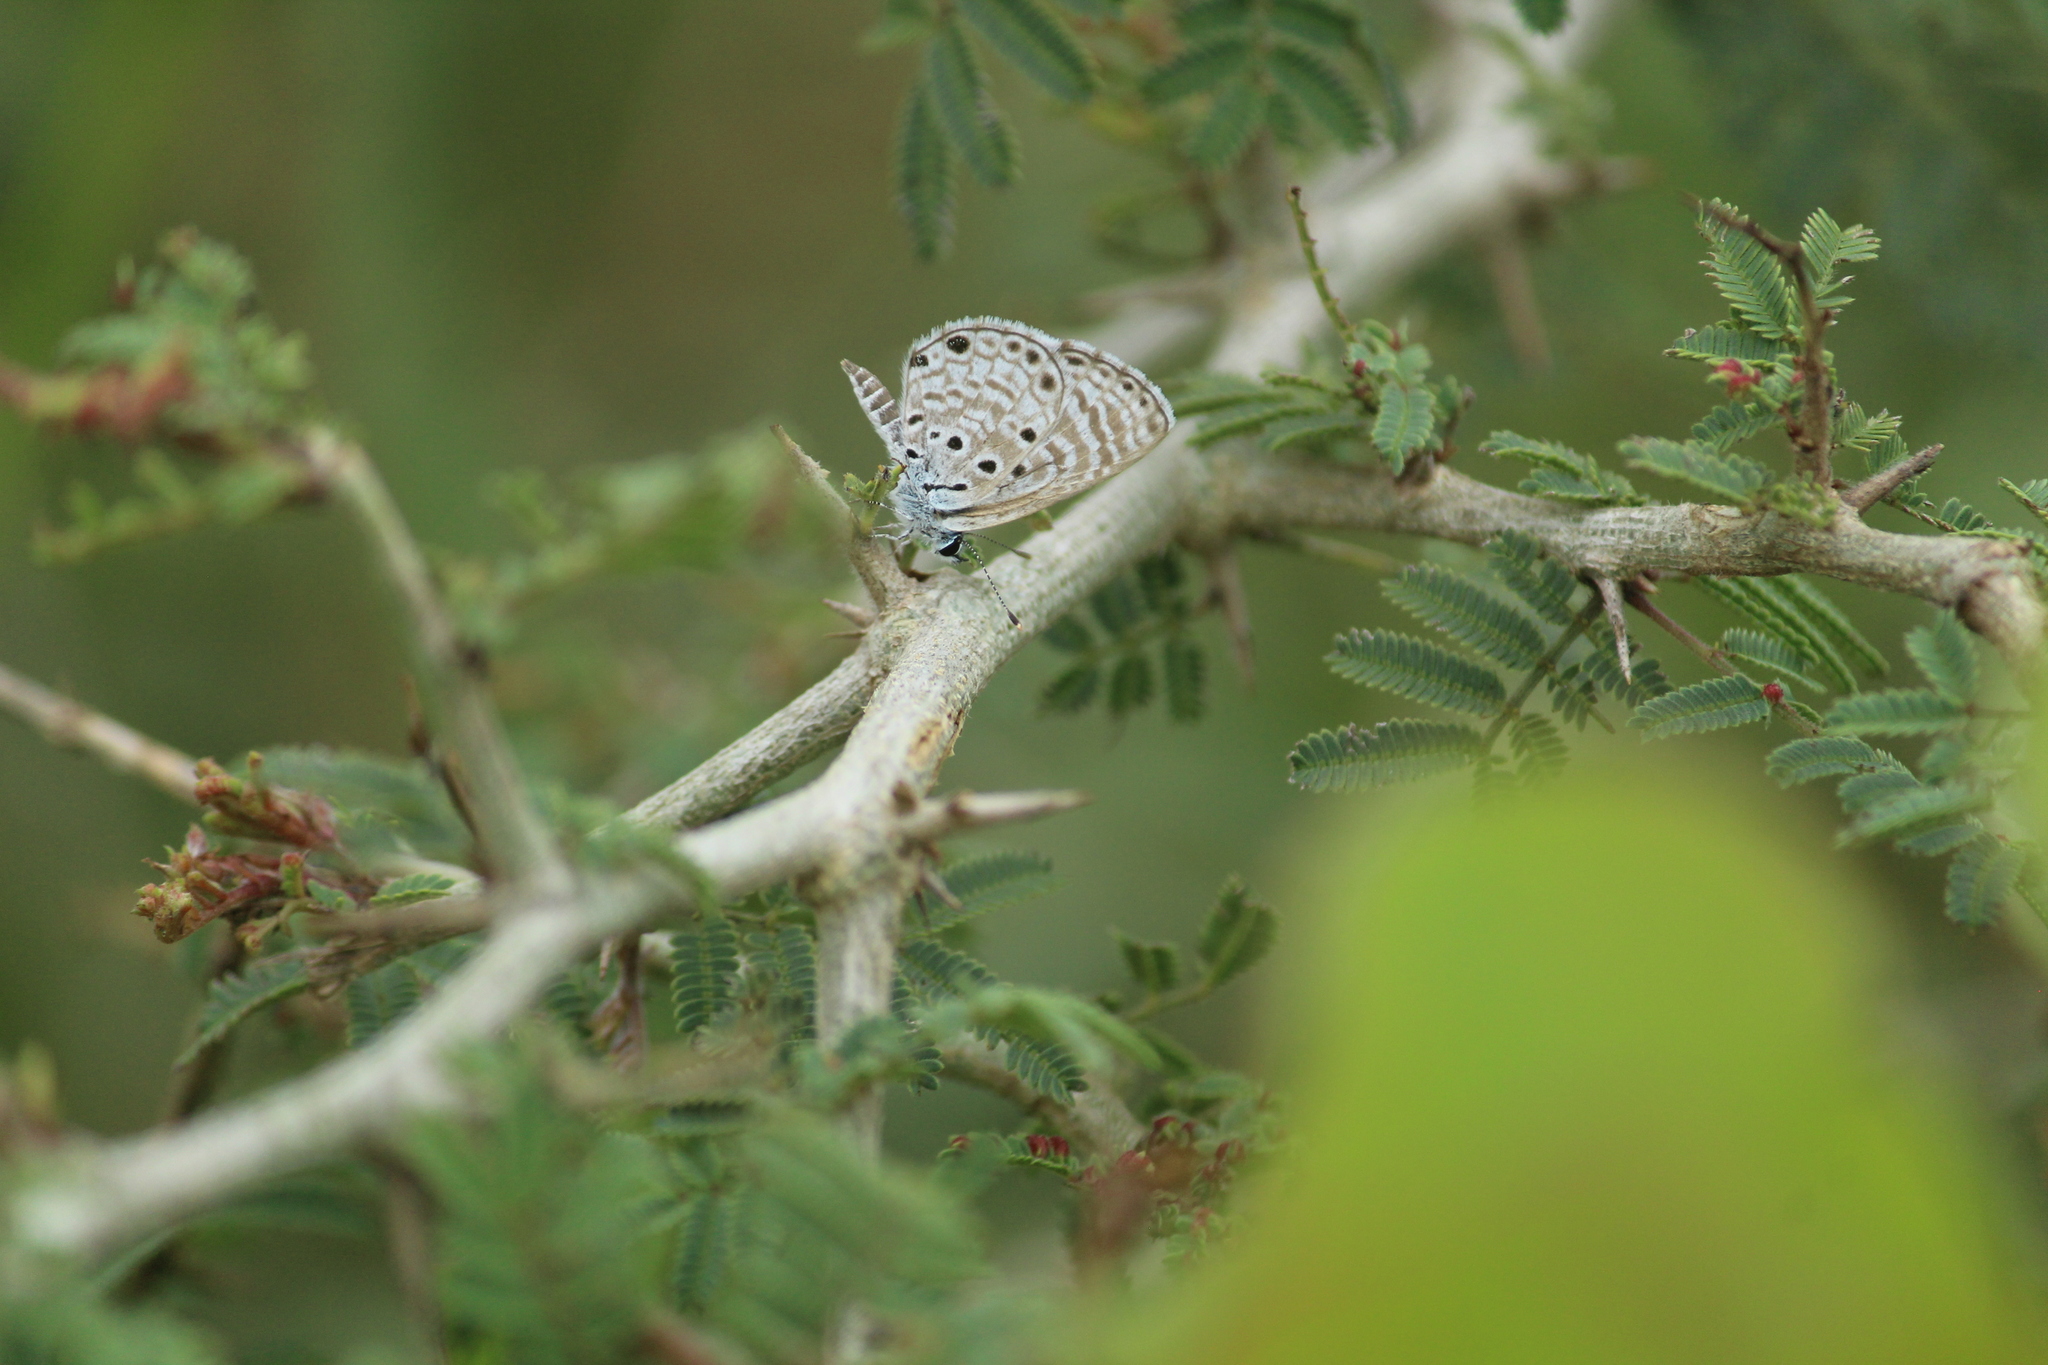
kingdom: Animalia
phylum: Arthropoda
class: Insecta
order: Lepidoptera
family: Lycaenidae
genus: Azanus
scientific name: Azanus jesous
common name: African babul blue
